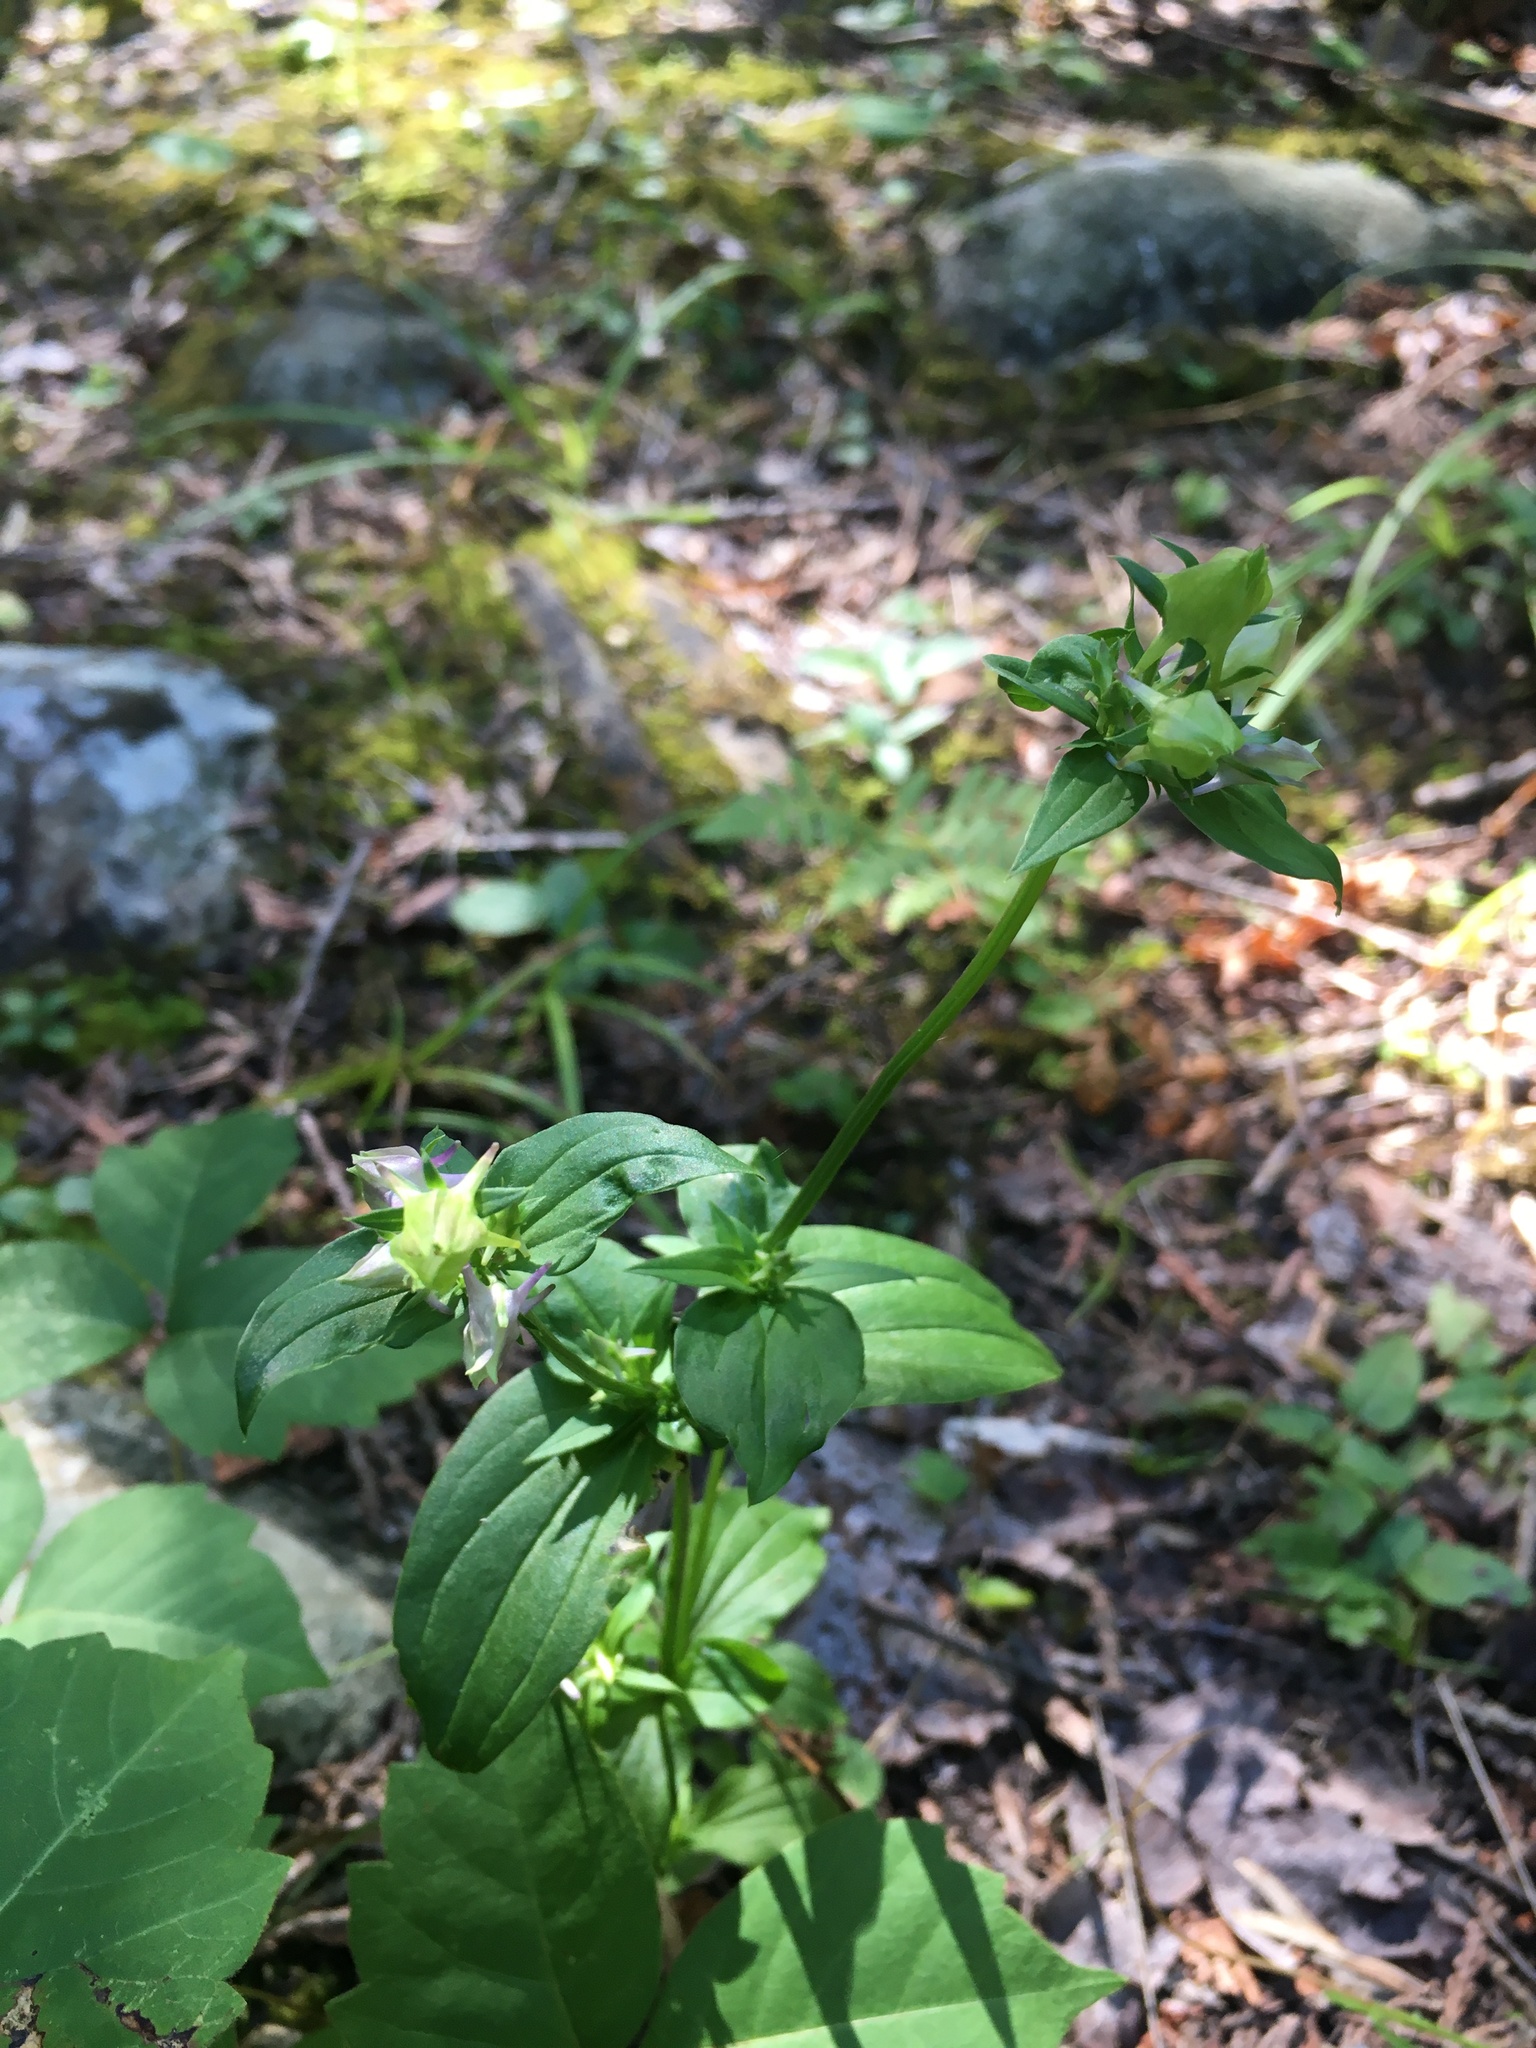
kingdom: Plantae
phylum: Tracheophyta
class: Magnoliopsida
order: Gentianales
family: Gentianaceae
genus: Halenia
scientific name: Halenia deflexa
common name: American spurred gentian
